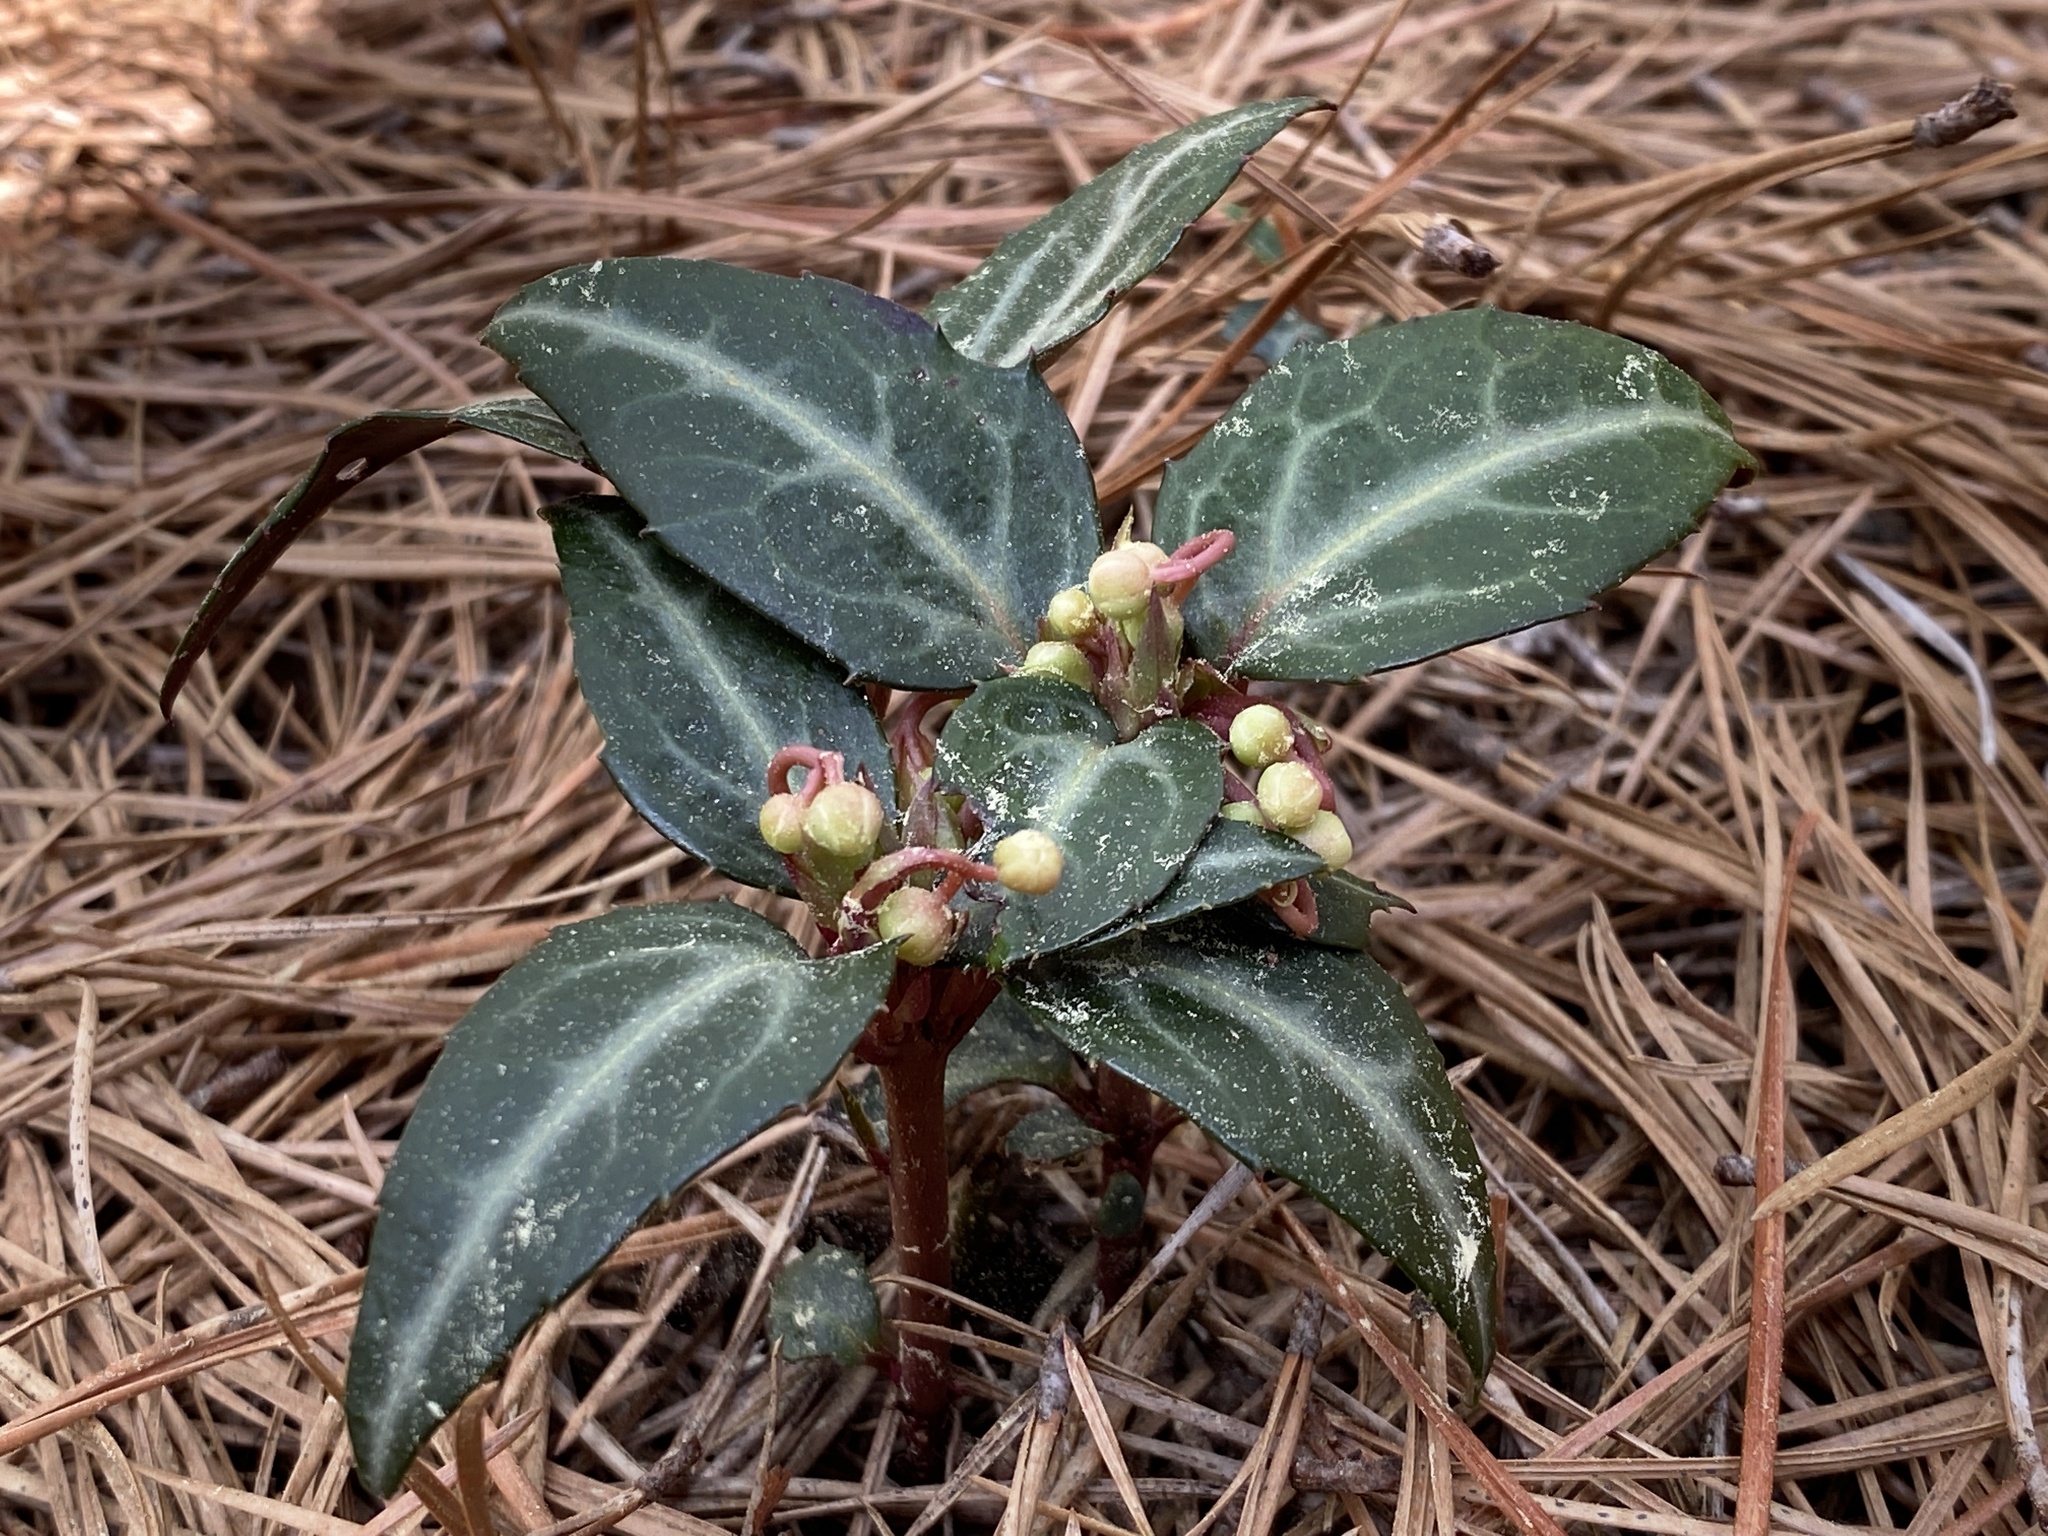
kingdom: Plantae
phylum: Tracheophyta
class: Magnoliopsida
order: Ericales
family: Ericaceae
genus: Chimaphila
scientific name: Chimaphila maculata
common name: Spotted pipsissewa
